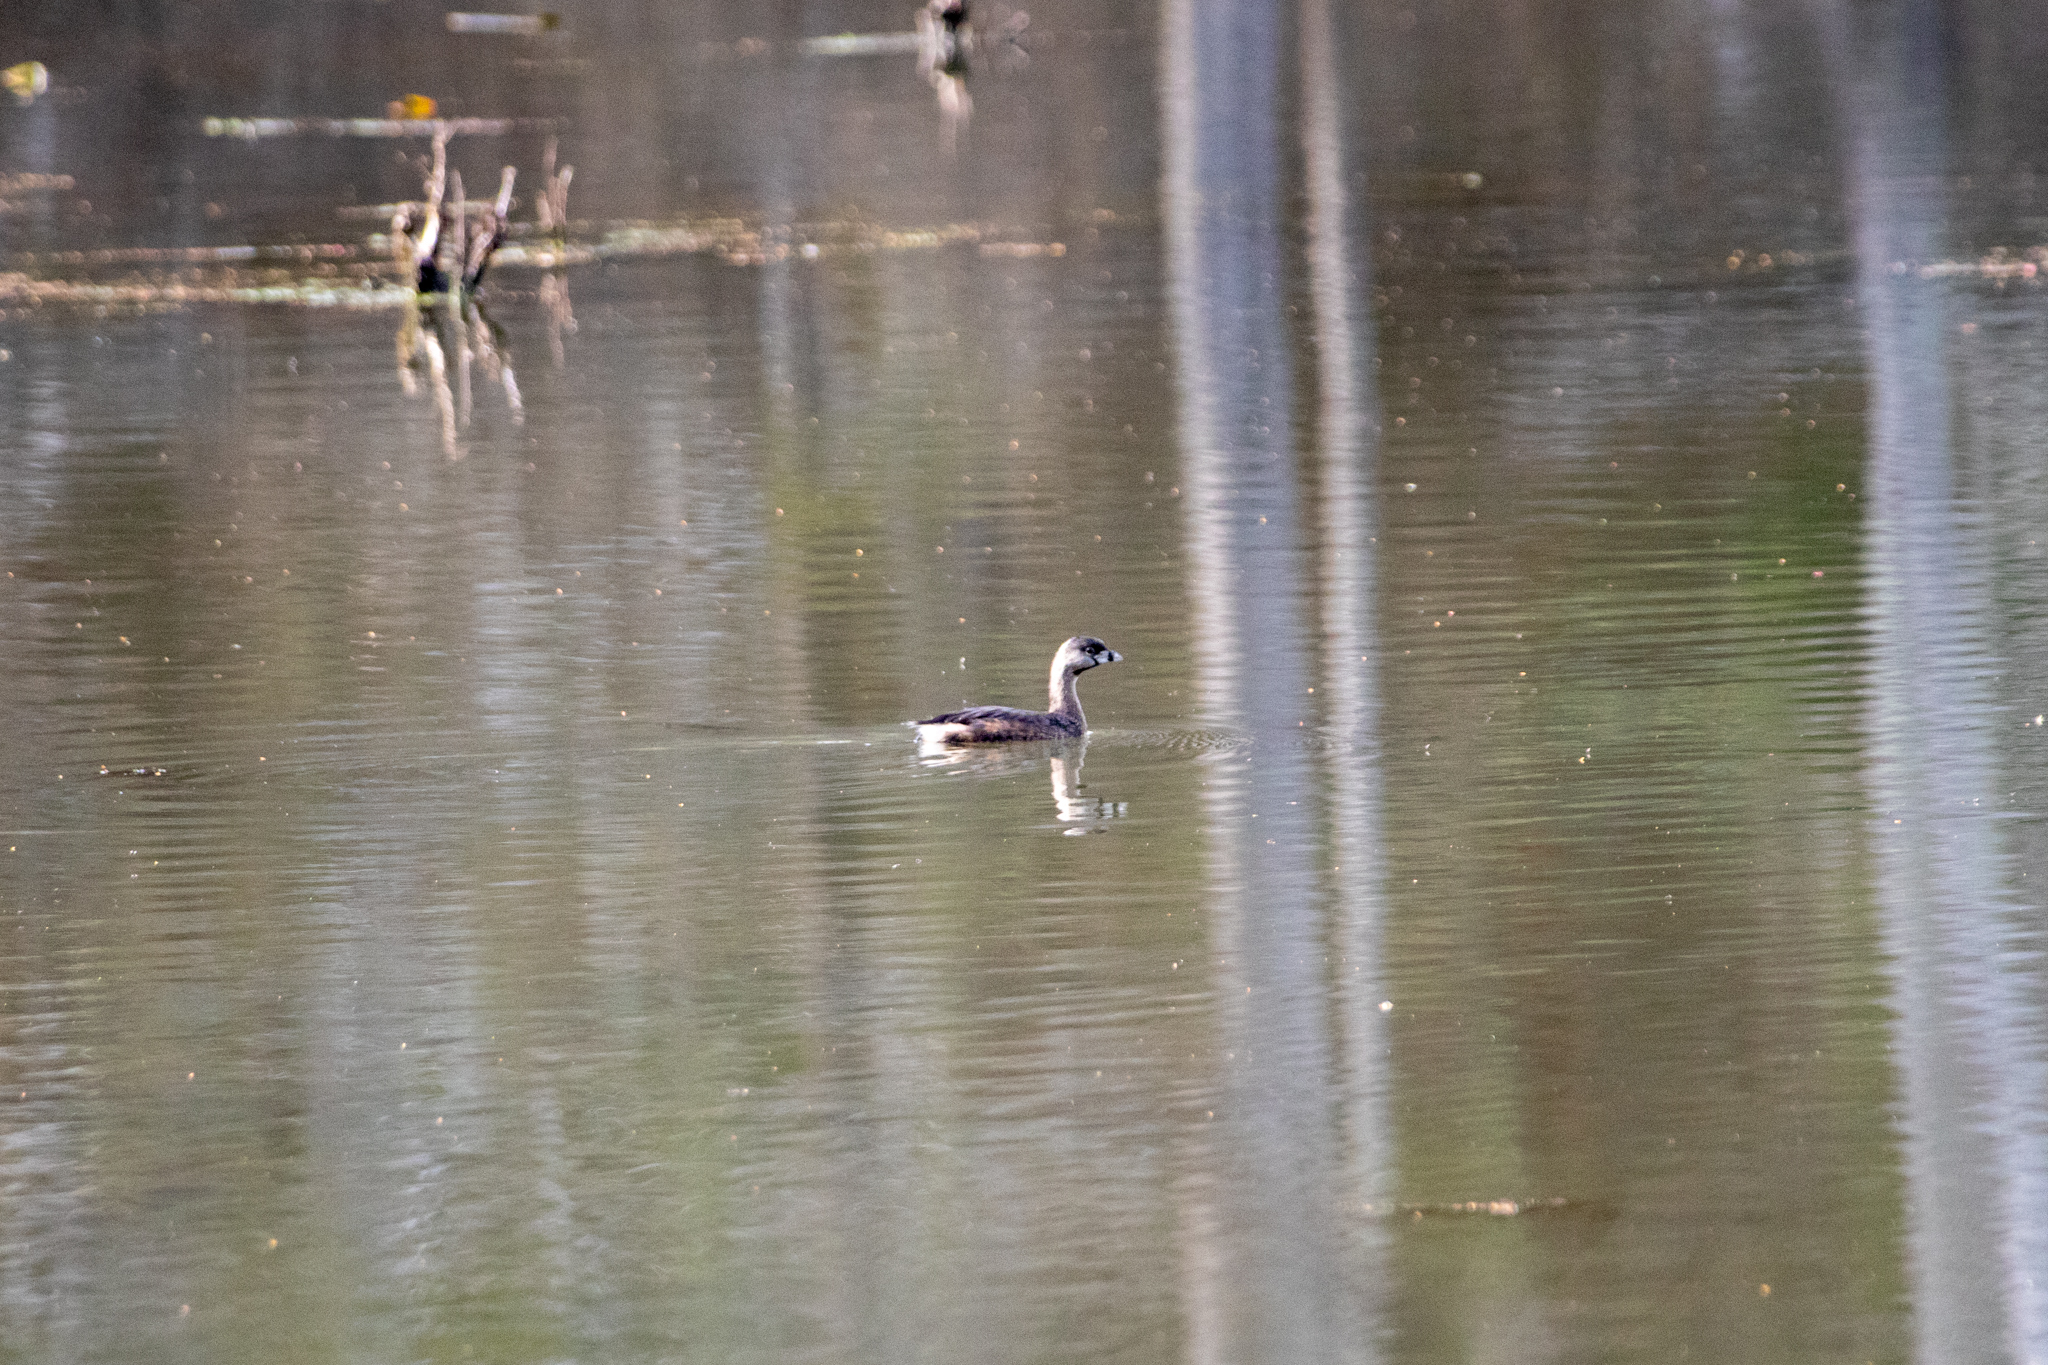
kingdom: Animalia
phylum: Chordata
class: Aves
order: Podicipediformes
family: Podicipedidae
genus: Podilymbus
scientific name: Podilymbus podiceps
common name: Pied-billed grebe
